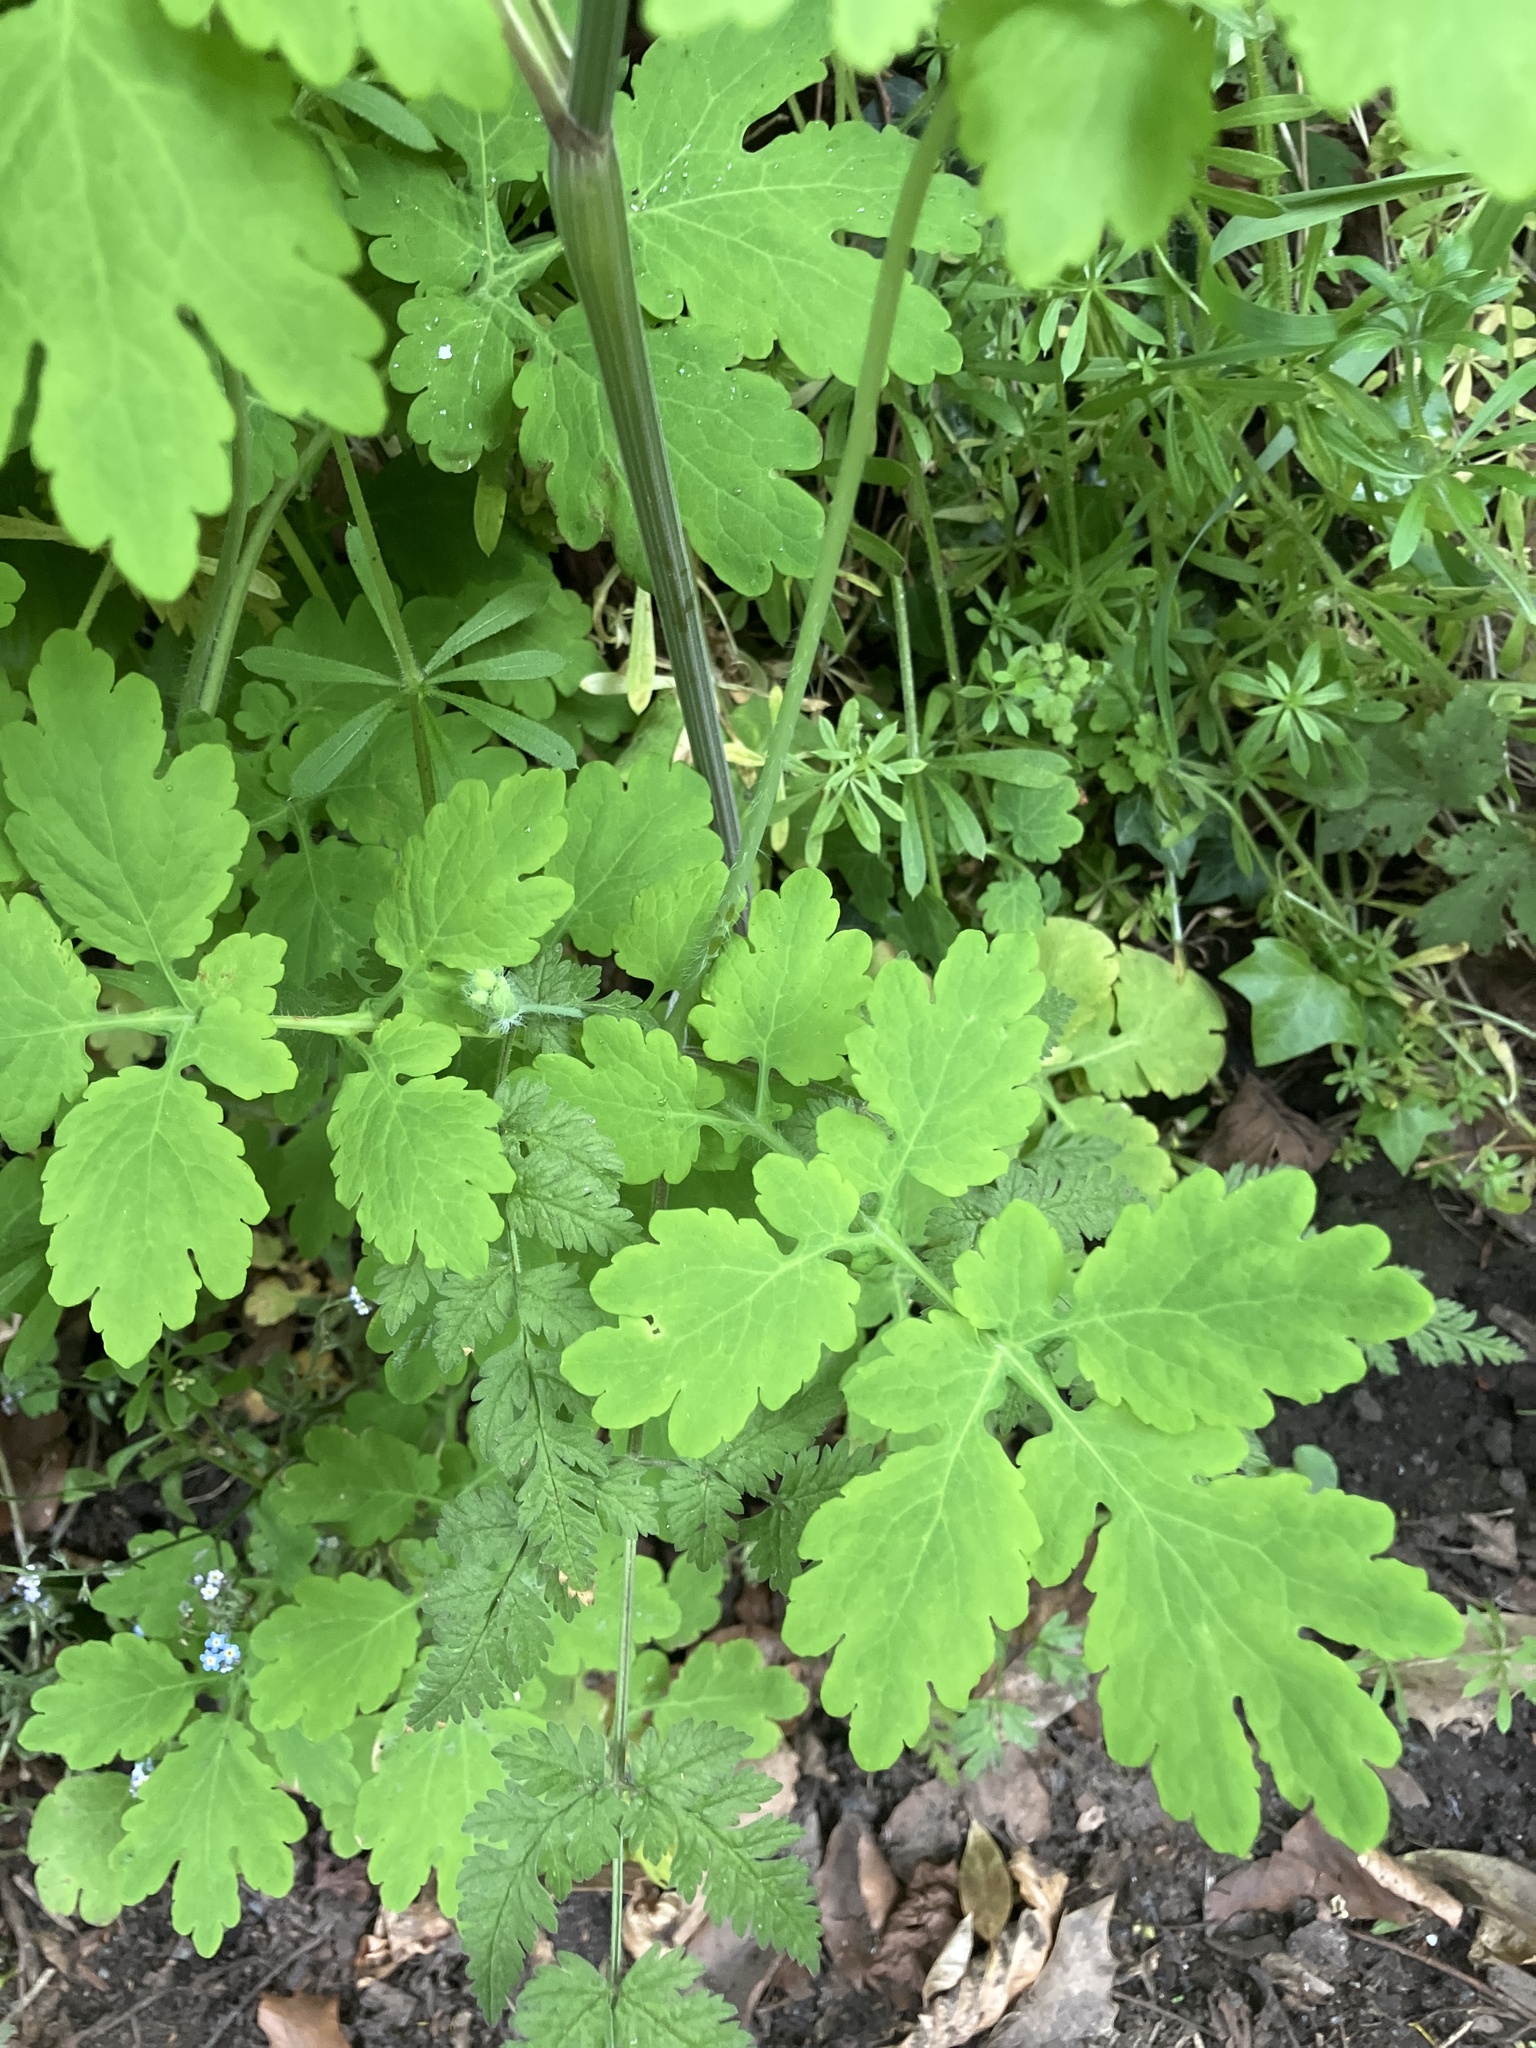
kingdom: Plantae
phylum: Tracheophyta
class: Magnoliopsida
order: Ranunculales
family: Papaveraceae
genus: Chelidonium
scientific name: Chelidonium majus
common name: Greater celandine
